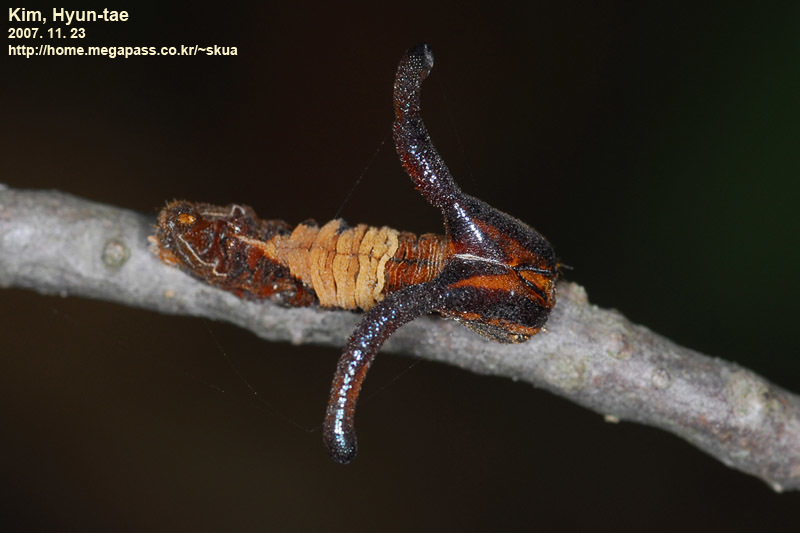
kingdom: Animalia
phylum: Arthropoda
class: Insecta
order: Lepidoptera
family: Nymphalidae
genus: Dichorragia
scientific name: Dichorragia nesimachus
